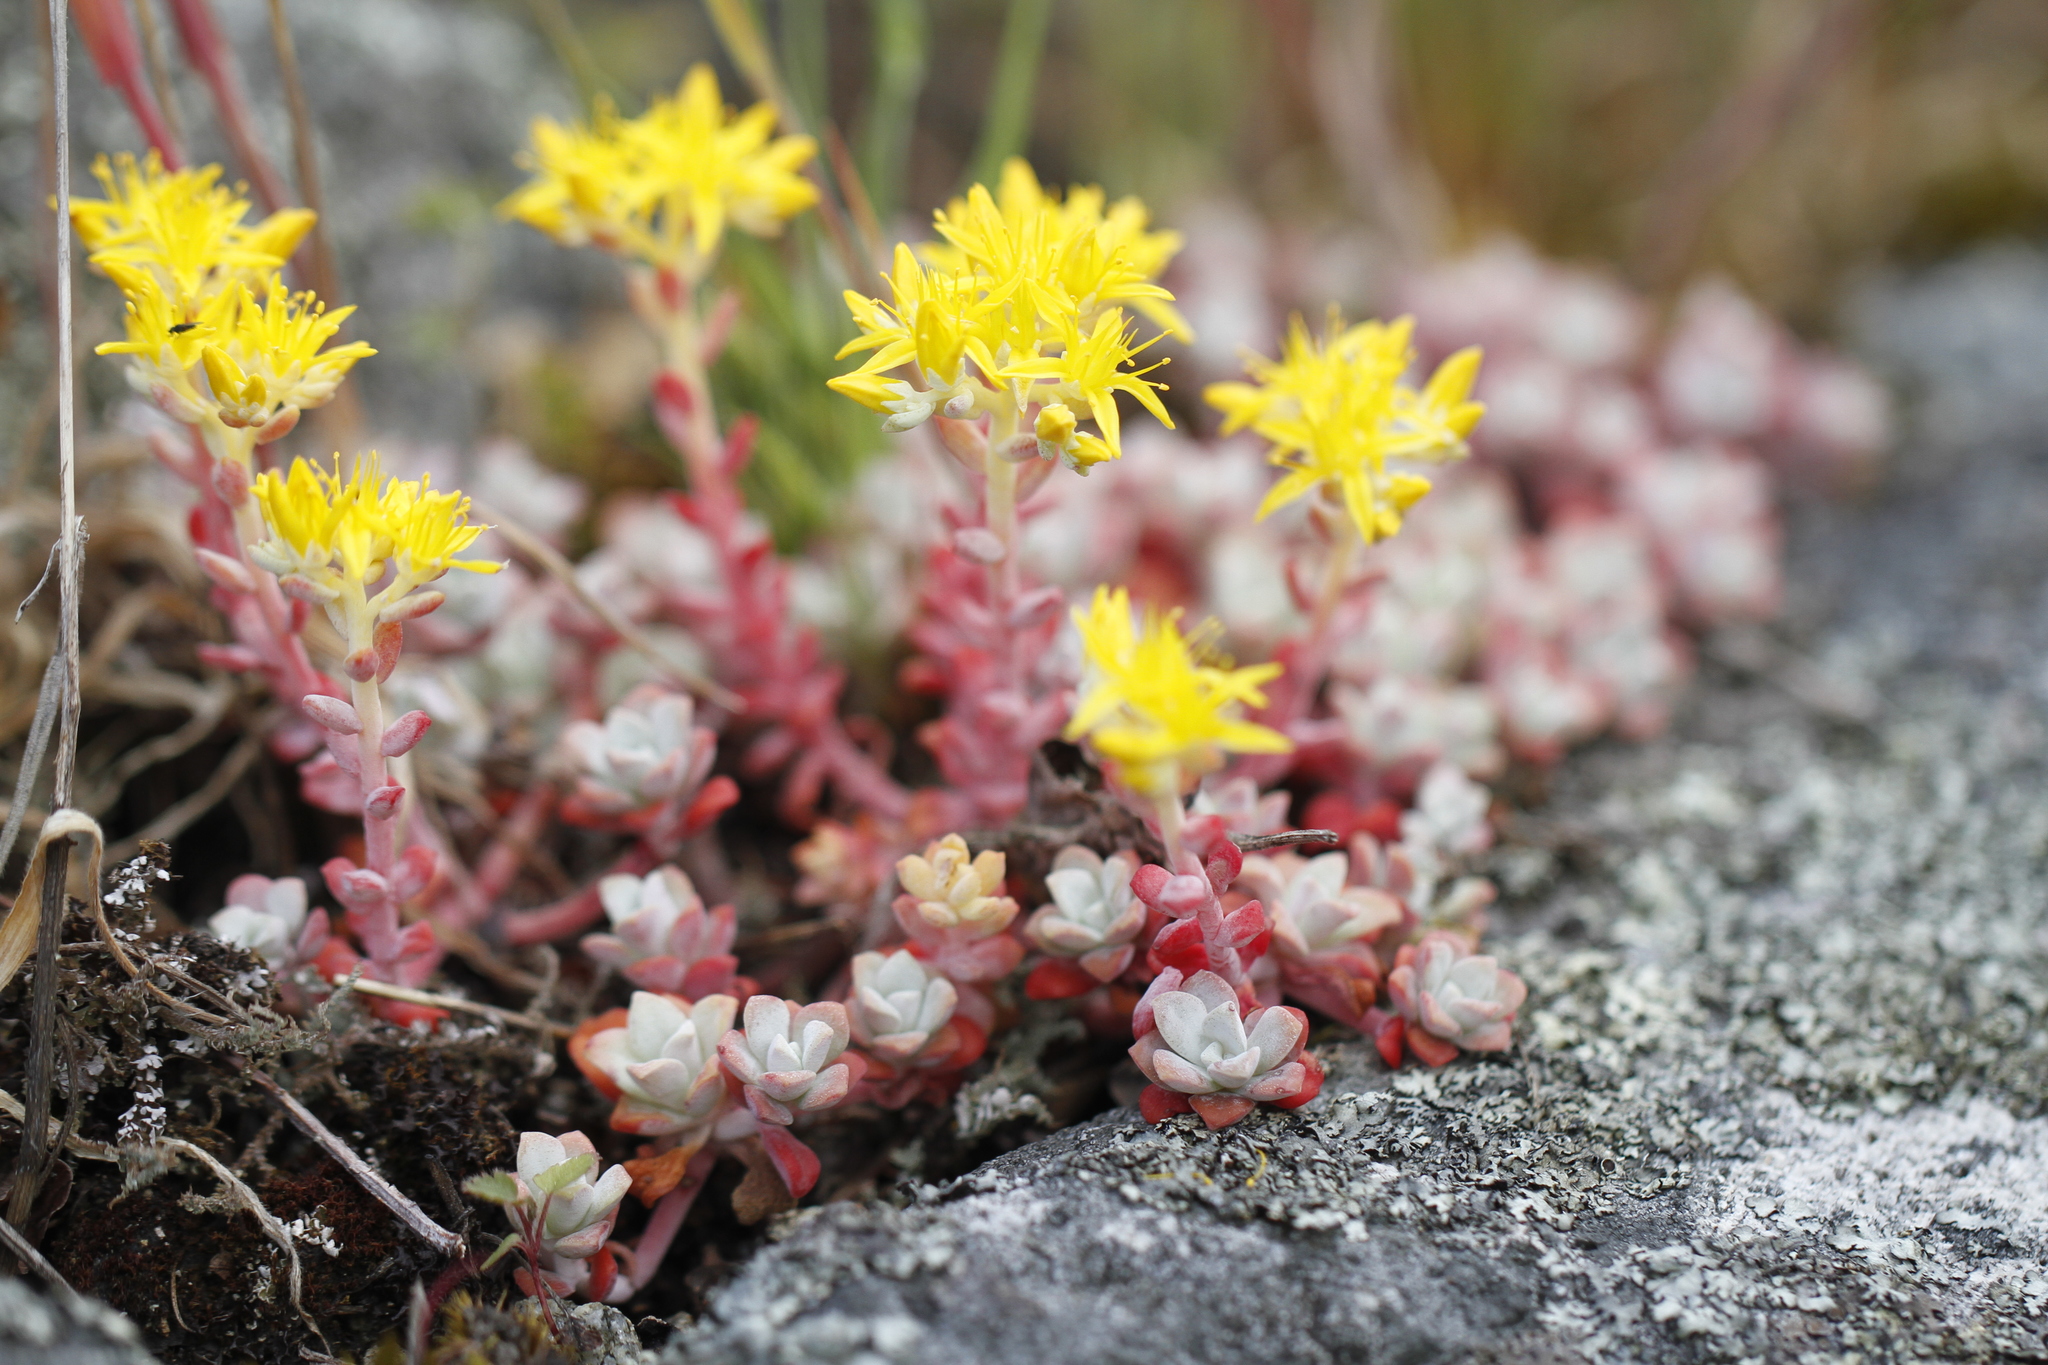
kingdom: Plantae
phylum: Tracheophyta
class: Magnoliopsida
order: Saxifragales
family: Crassulaceae
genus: Sedum
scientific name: Sedum spathulifolium
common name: Colorado stonecrop
